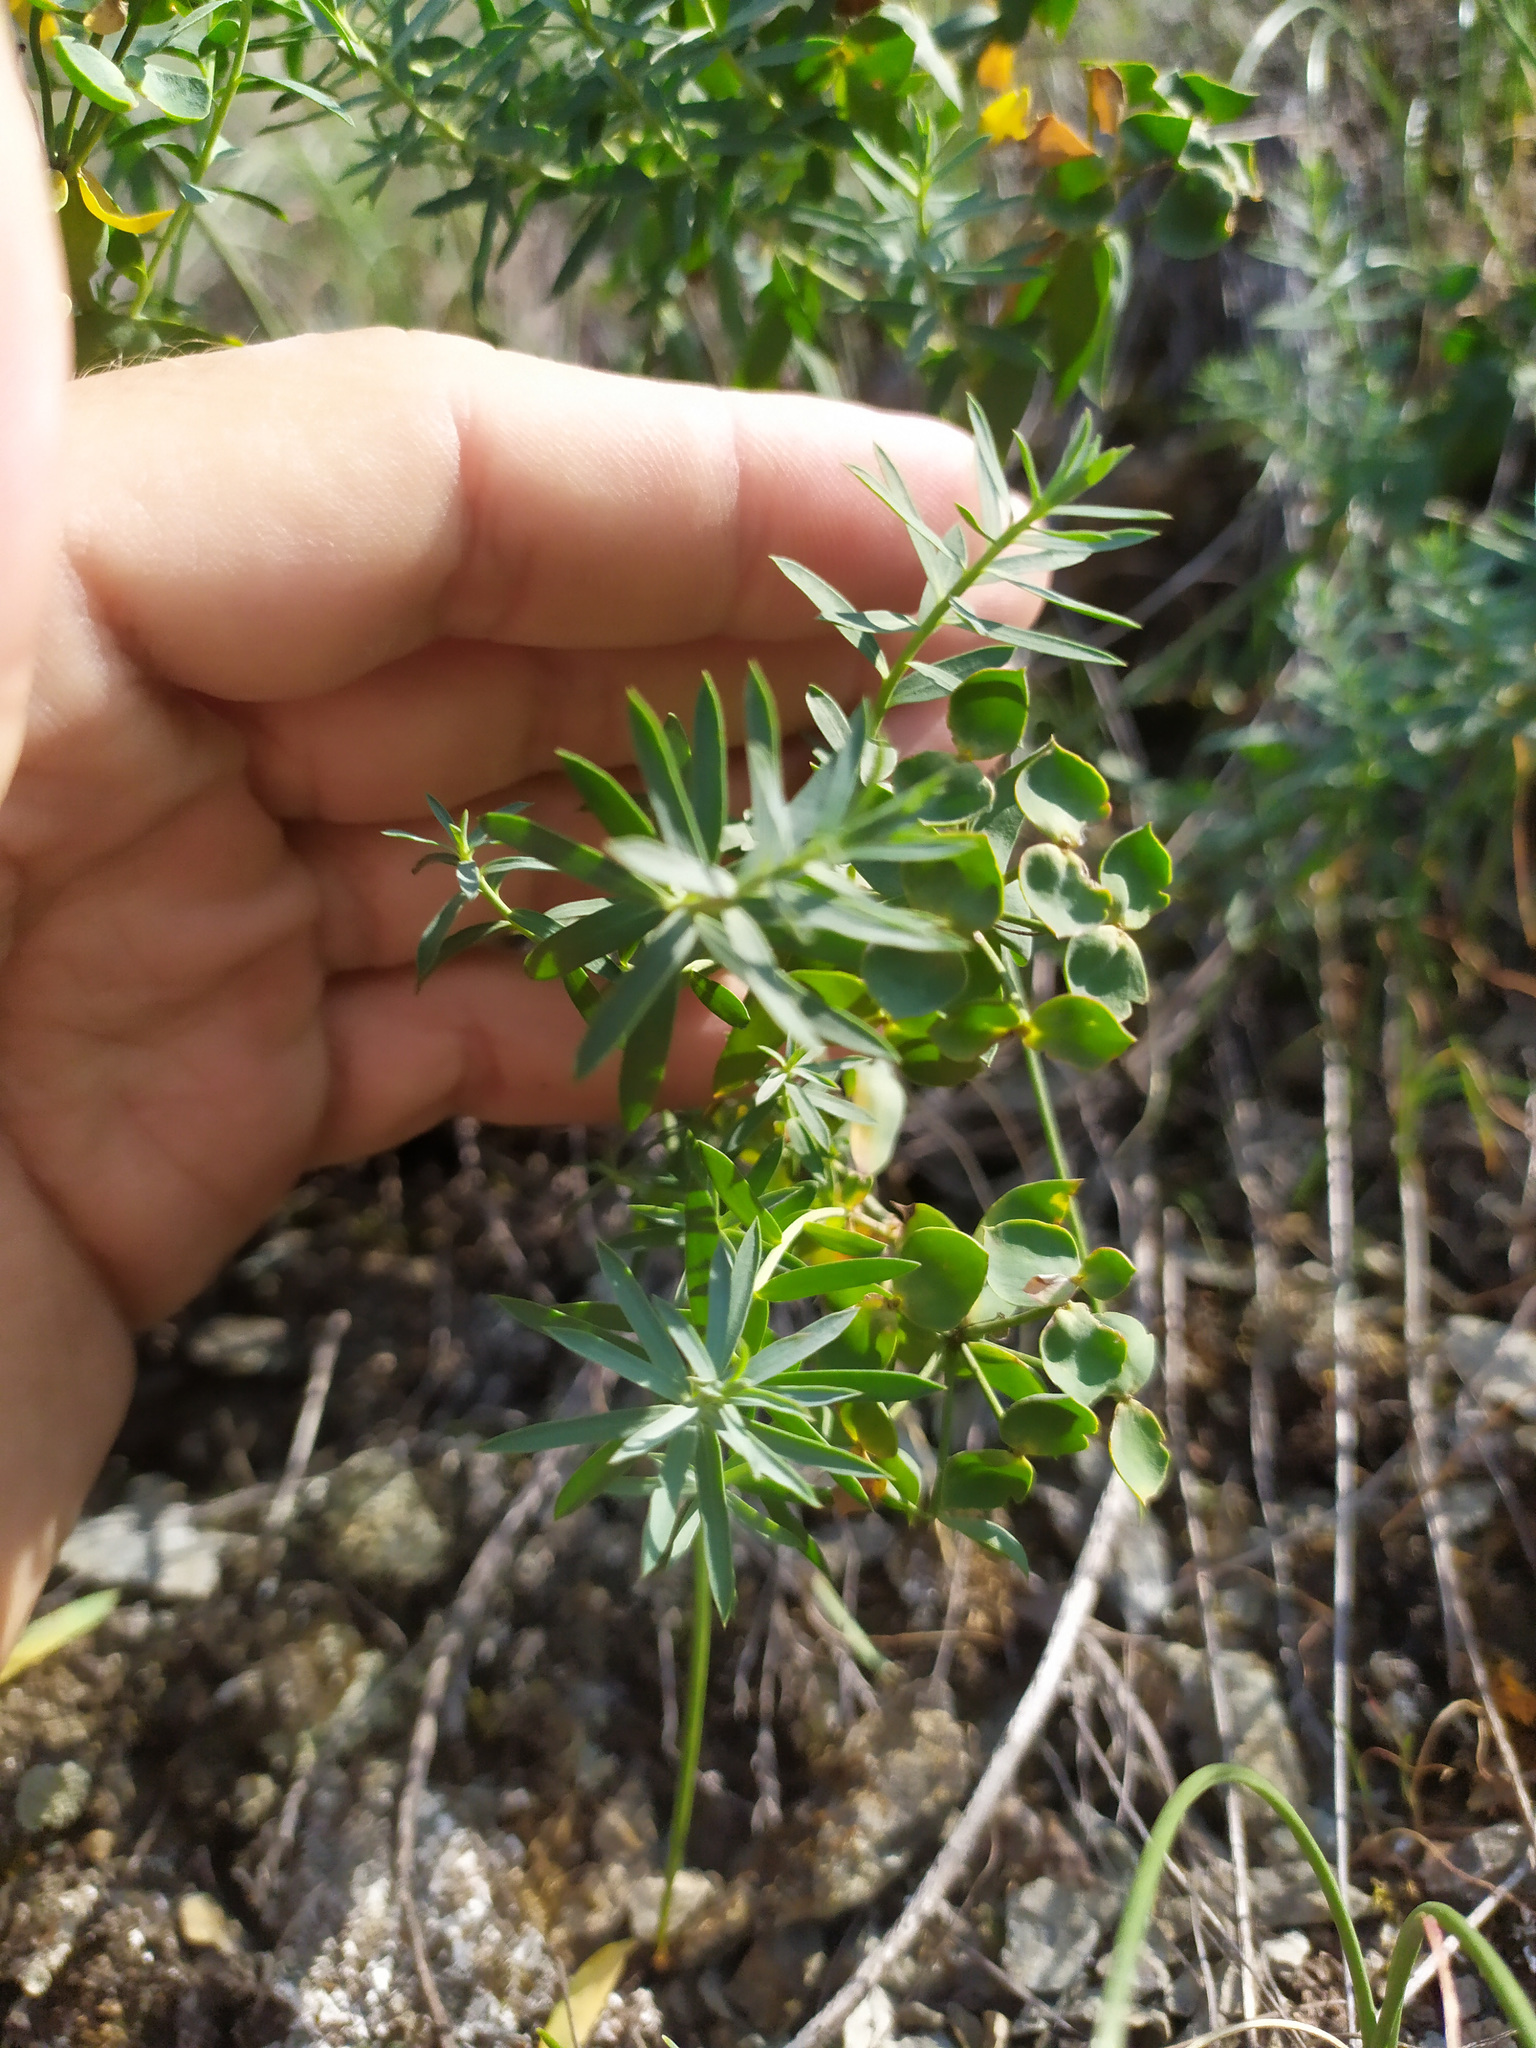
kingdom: Plantae
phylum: Tracheophyta
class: Magnoliopsida
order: Malpighiales
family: Euphorbiaceae
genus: Euphorbia
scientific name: Euphorbia seguieriana
